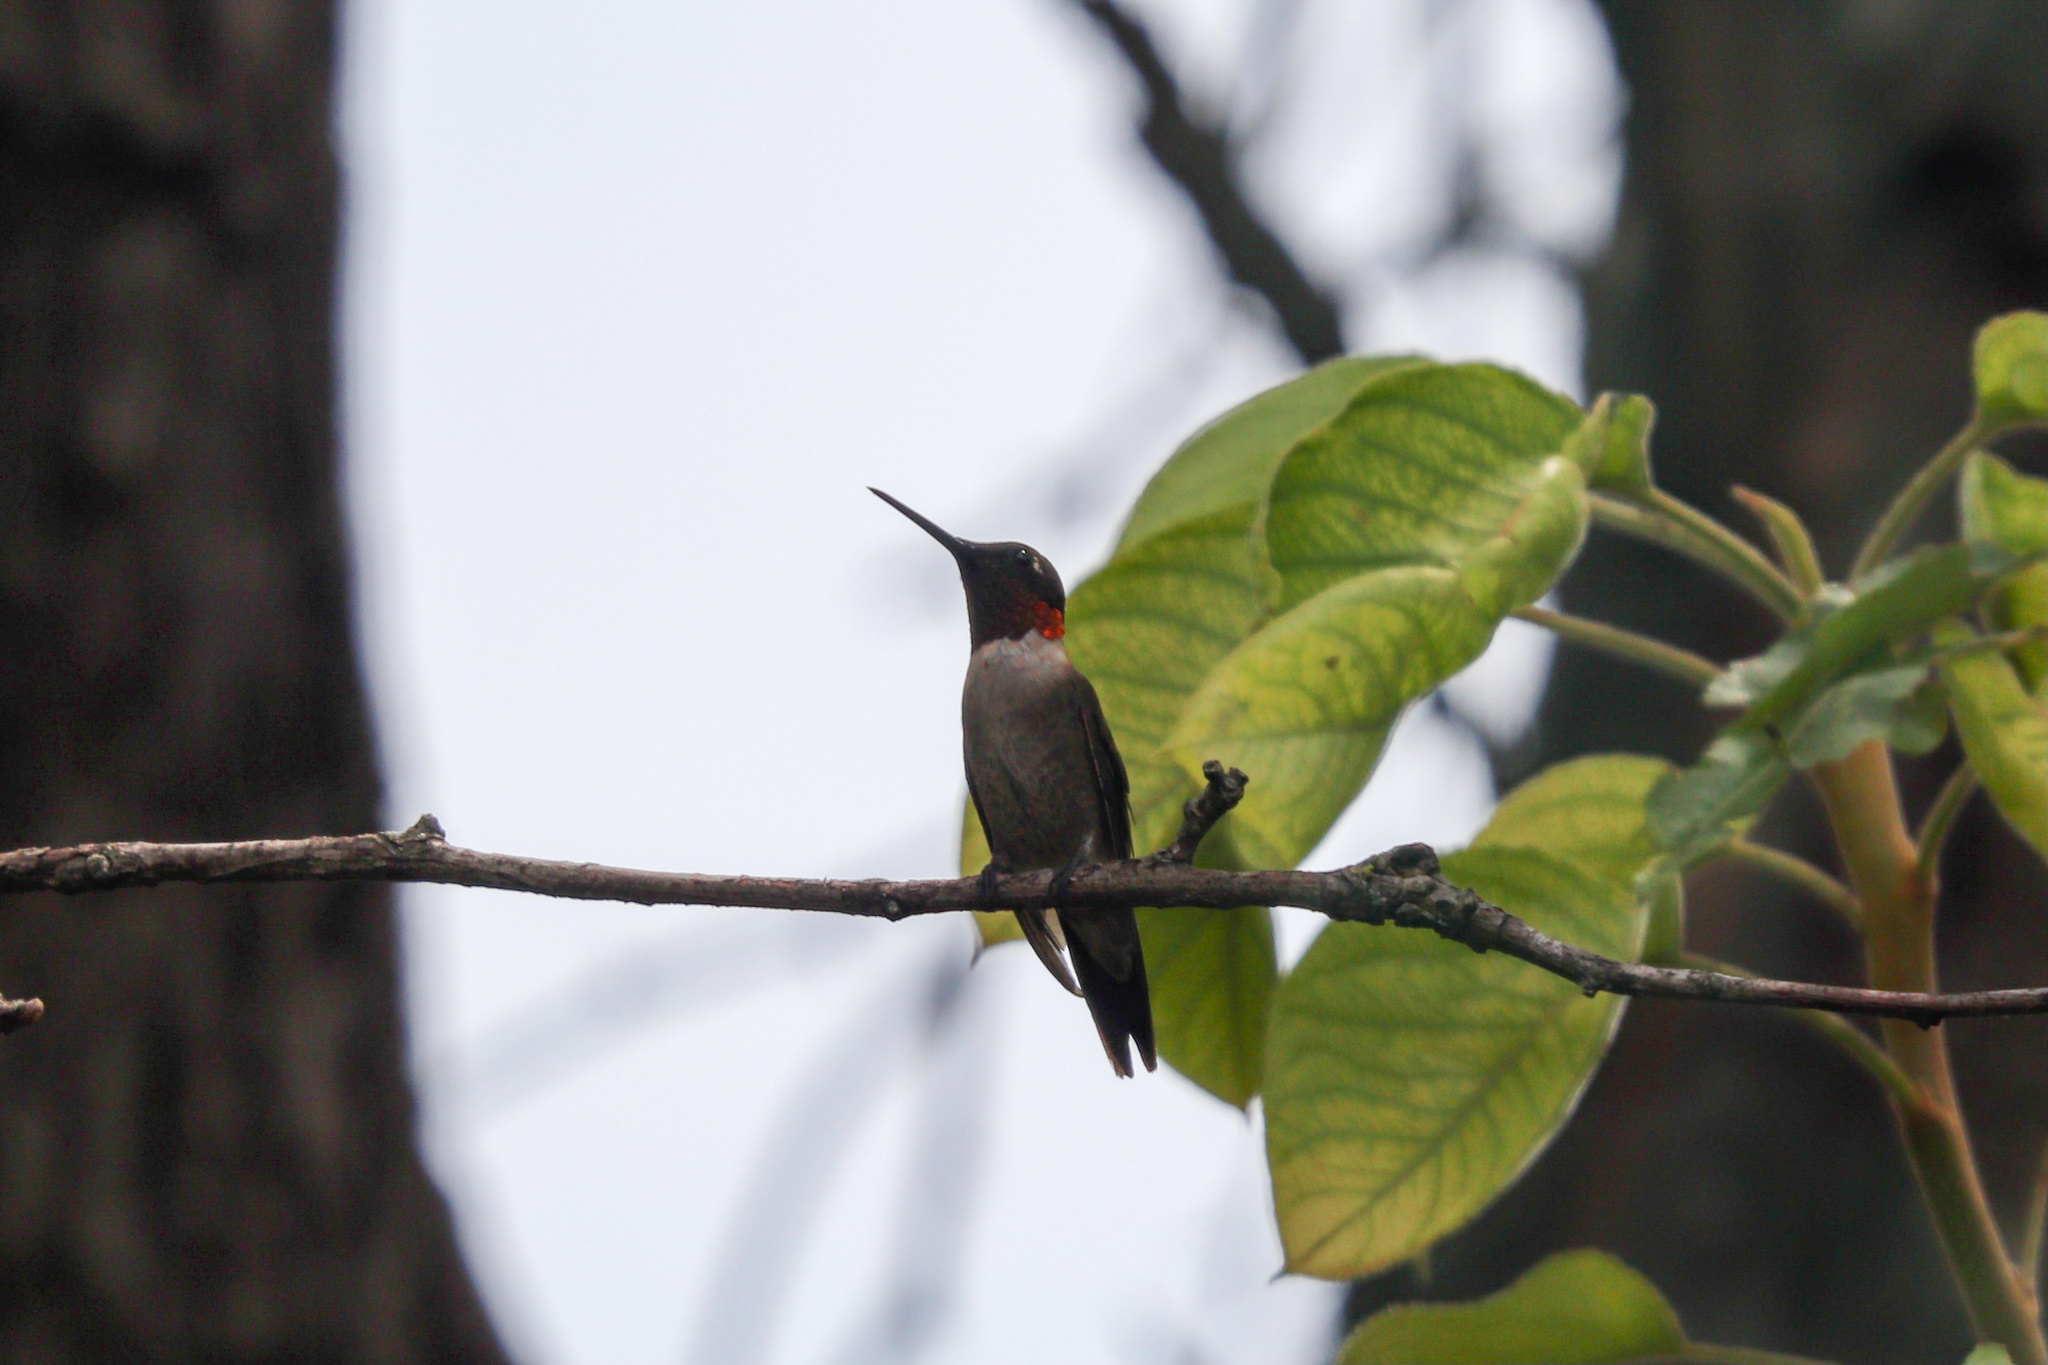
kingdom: Animalia
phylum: Chordata
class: Aves
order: Apodiformes
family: Trochilidae
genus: Archilochus
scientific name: Archilochus colubris
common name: Ruby-throated hummingbird
